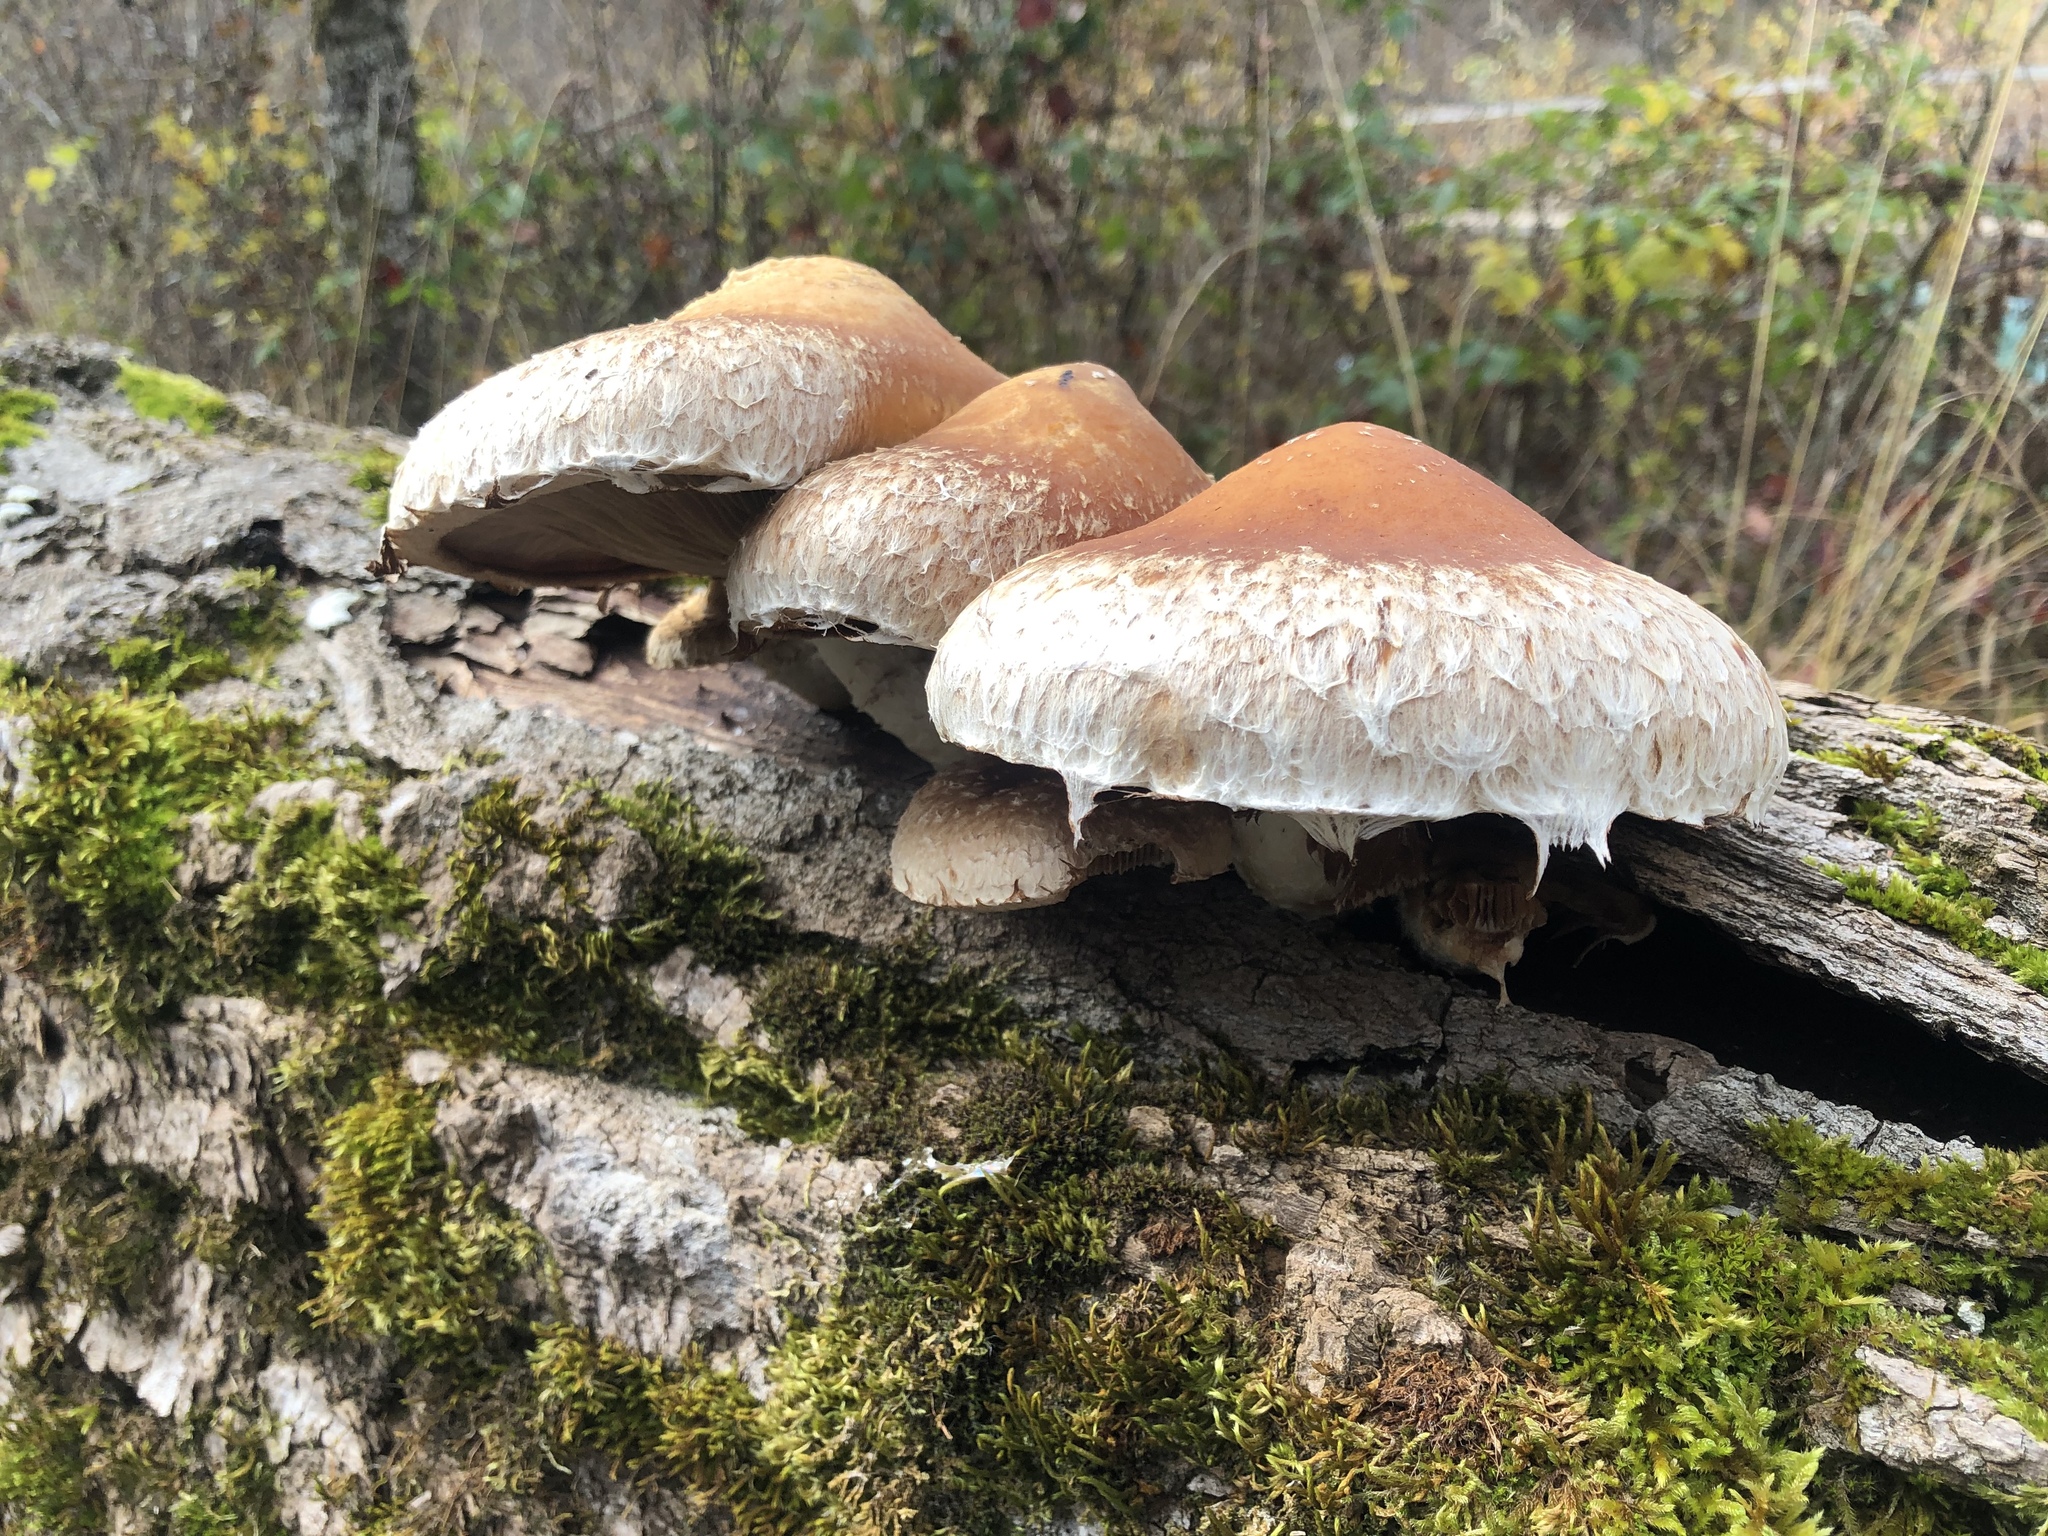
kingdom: Fungi
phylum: Basidiomycota
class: Agaricomycetes
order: Agaricales
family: Strophariaceae
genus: Pholiota
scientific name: Pholiota populnea
